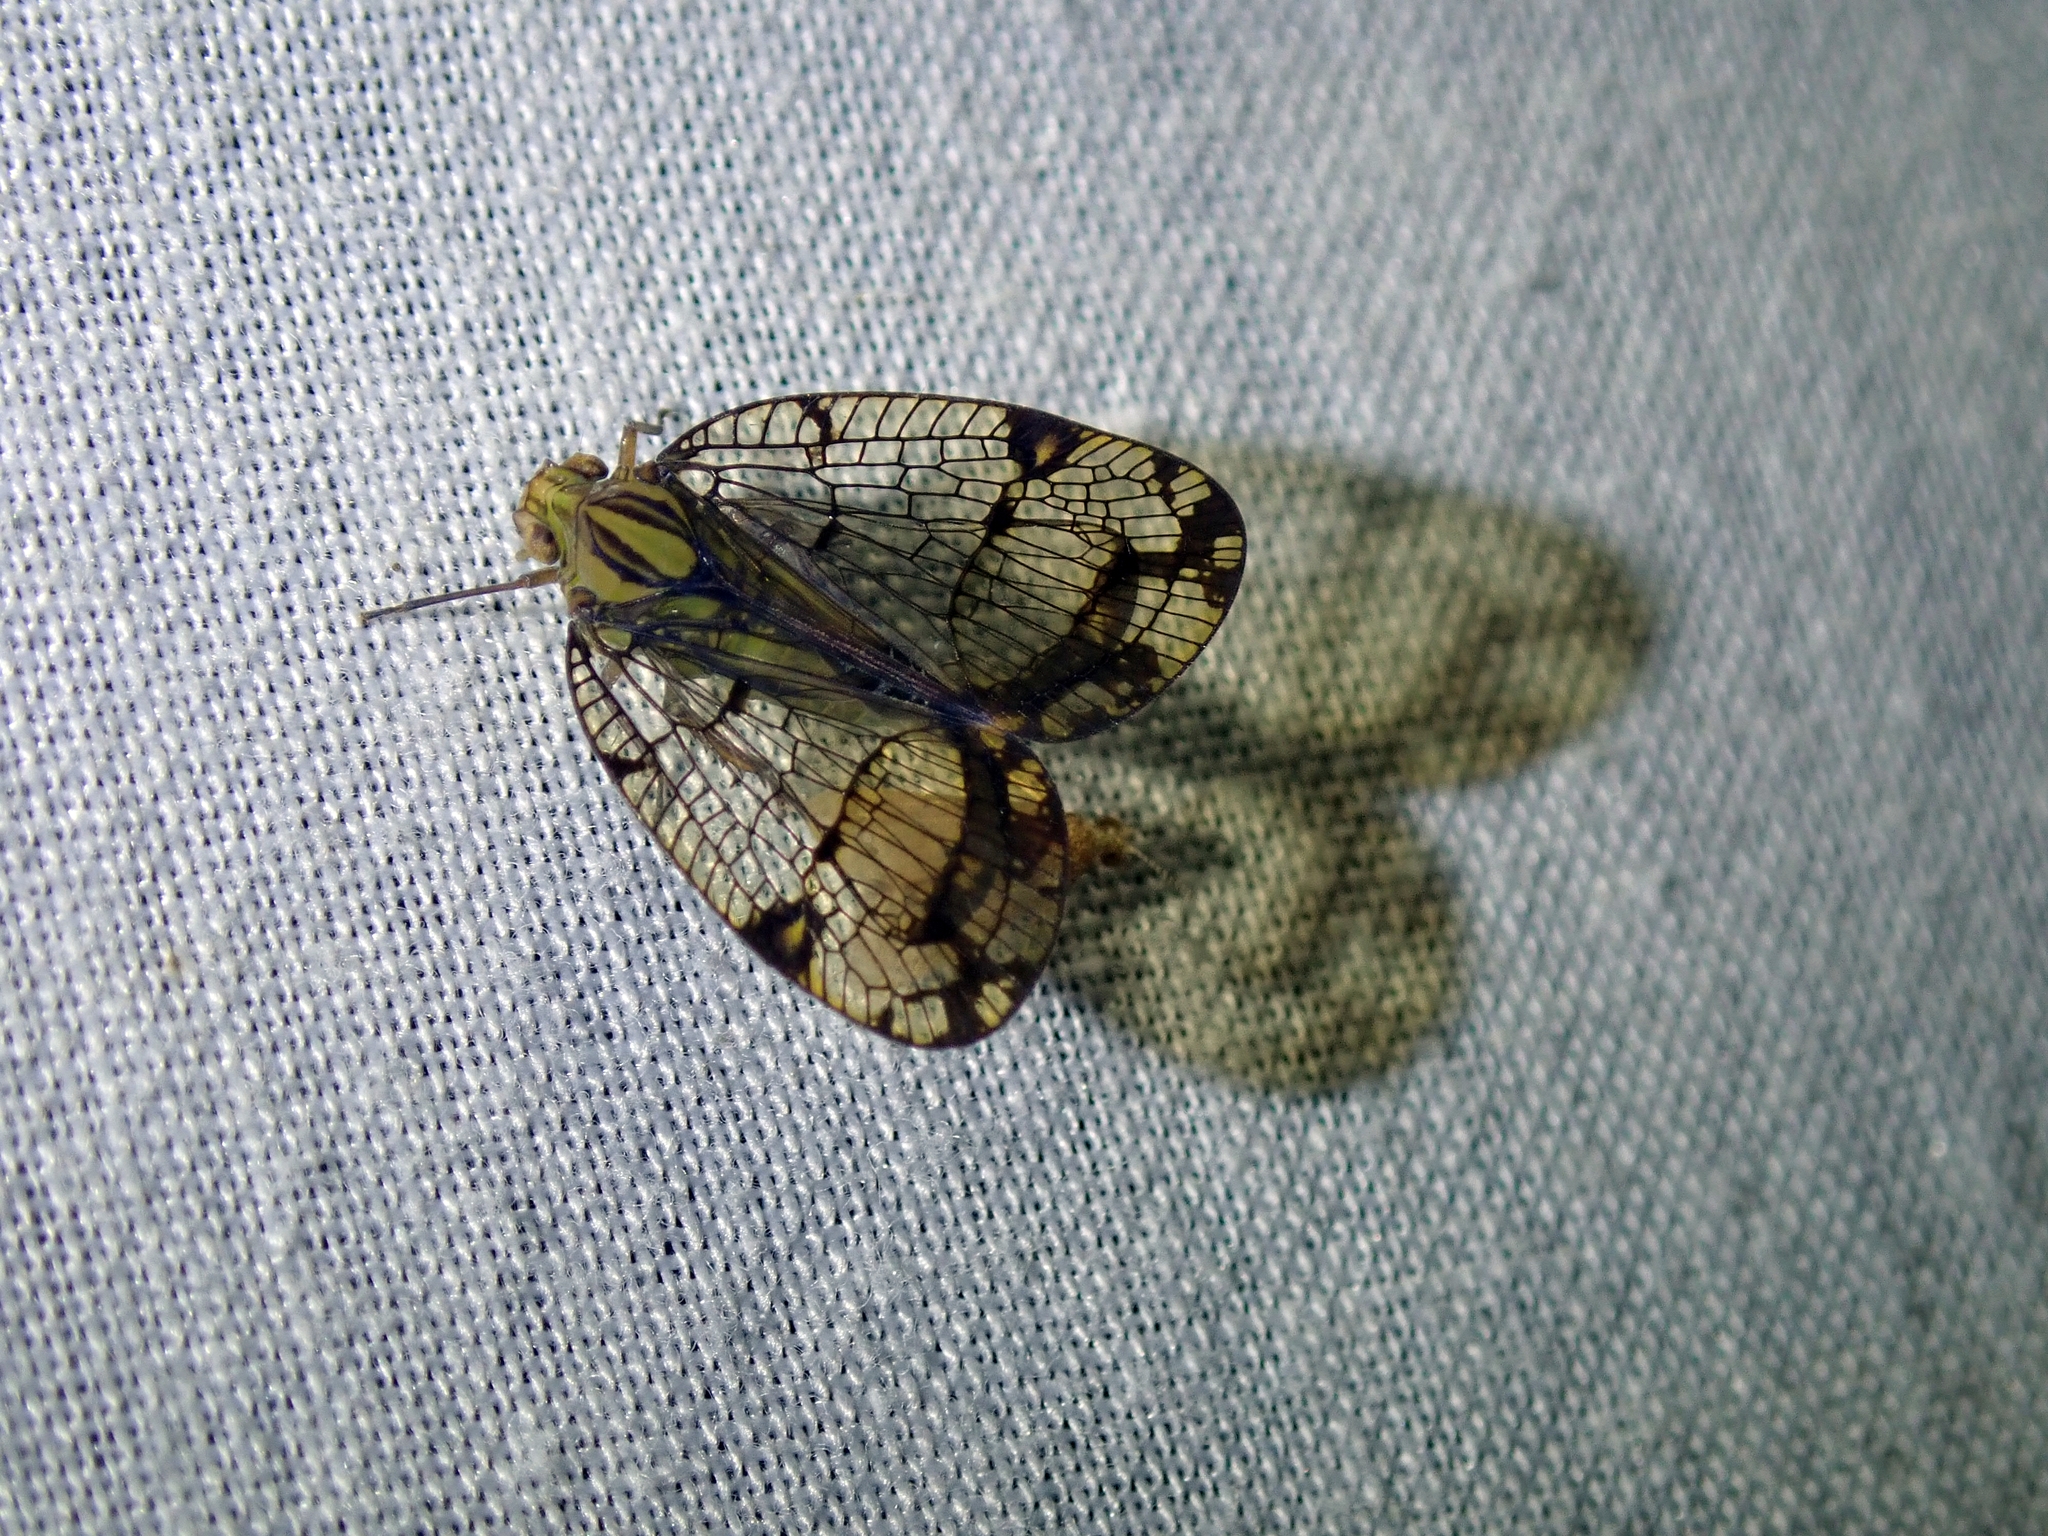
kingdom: Animalia
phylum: Arthropoda
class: Insecta
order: Hemiptera
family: Nogodinidae
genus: Biolleyana
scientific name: Biolleyana costalis
